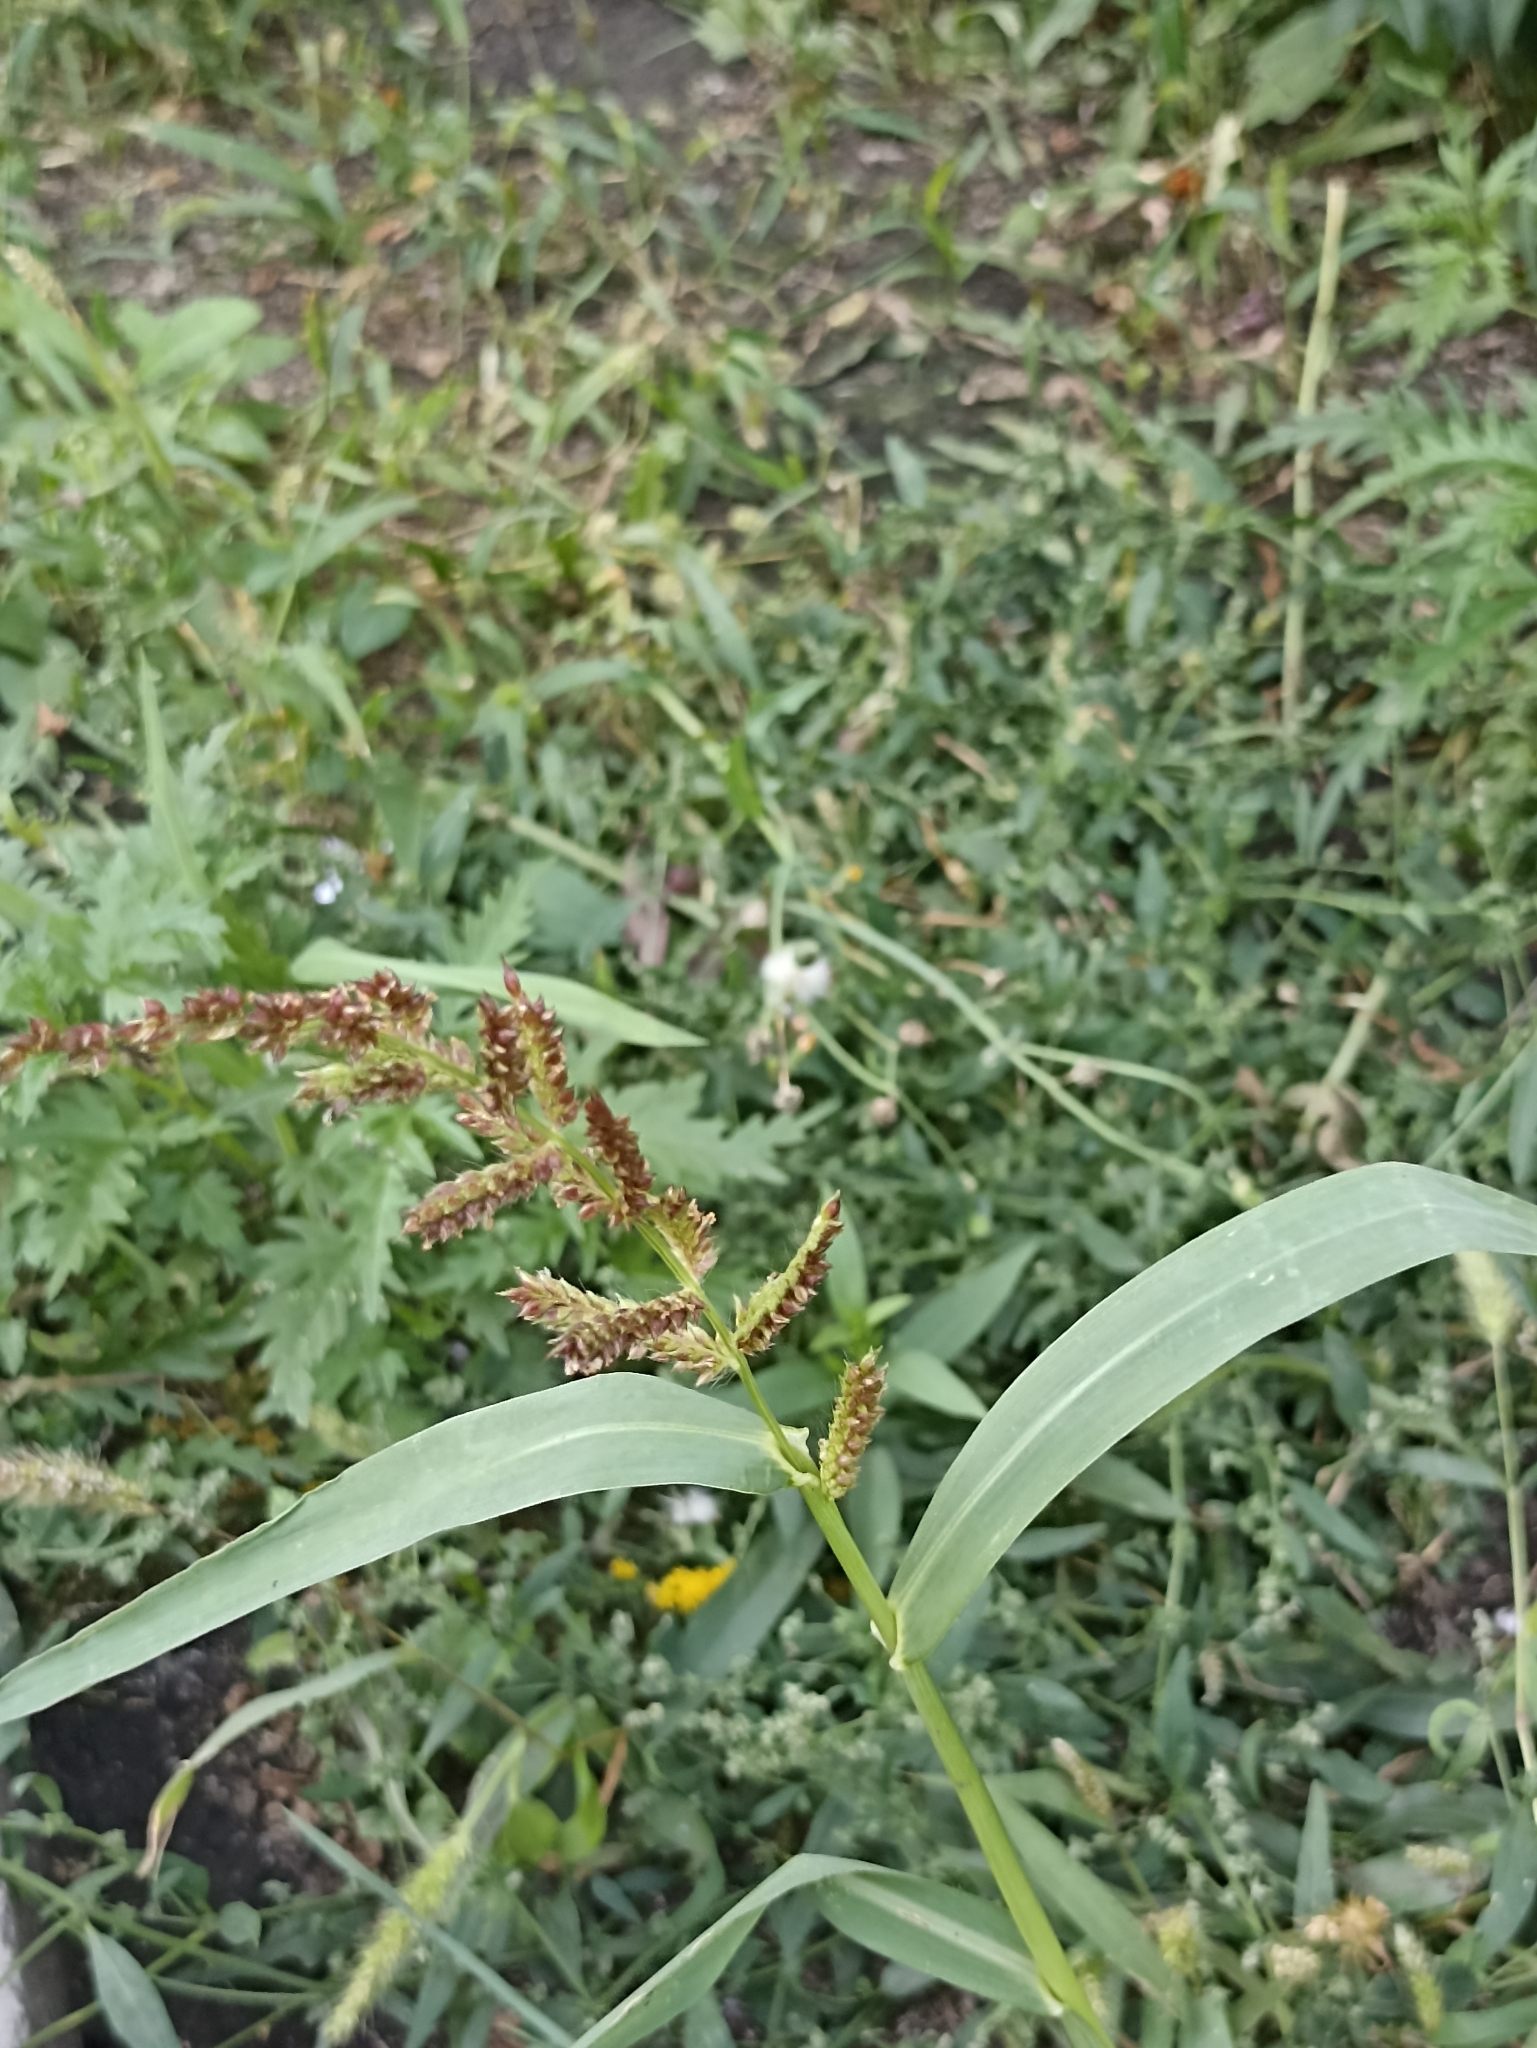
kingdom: Plantae
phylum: Tracheophyta
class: Liliopsida
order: Poales
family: Poaceae
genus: Echinochloa
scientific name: Echinochloa crus-galli
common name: Cockspur
